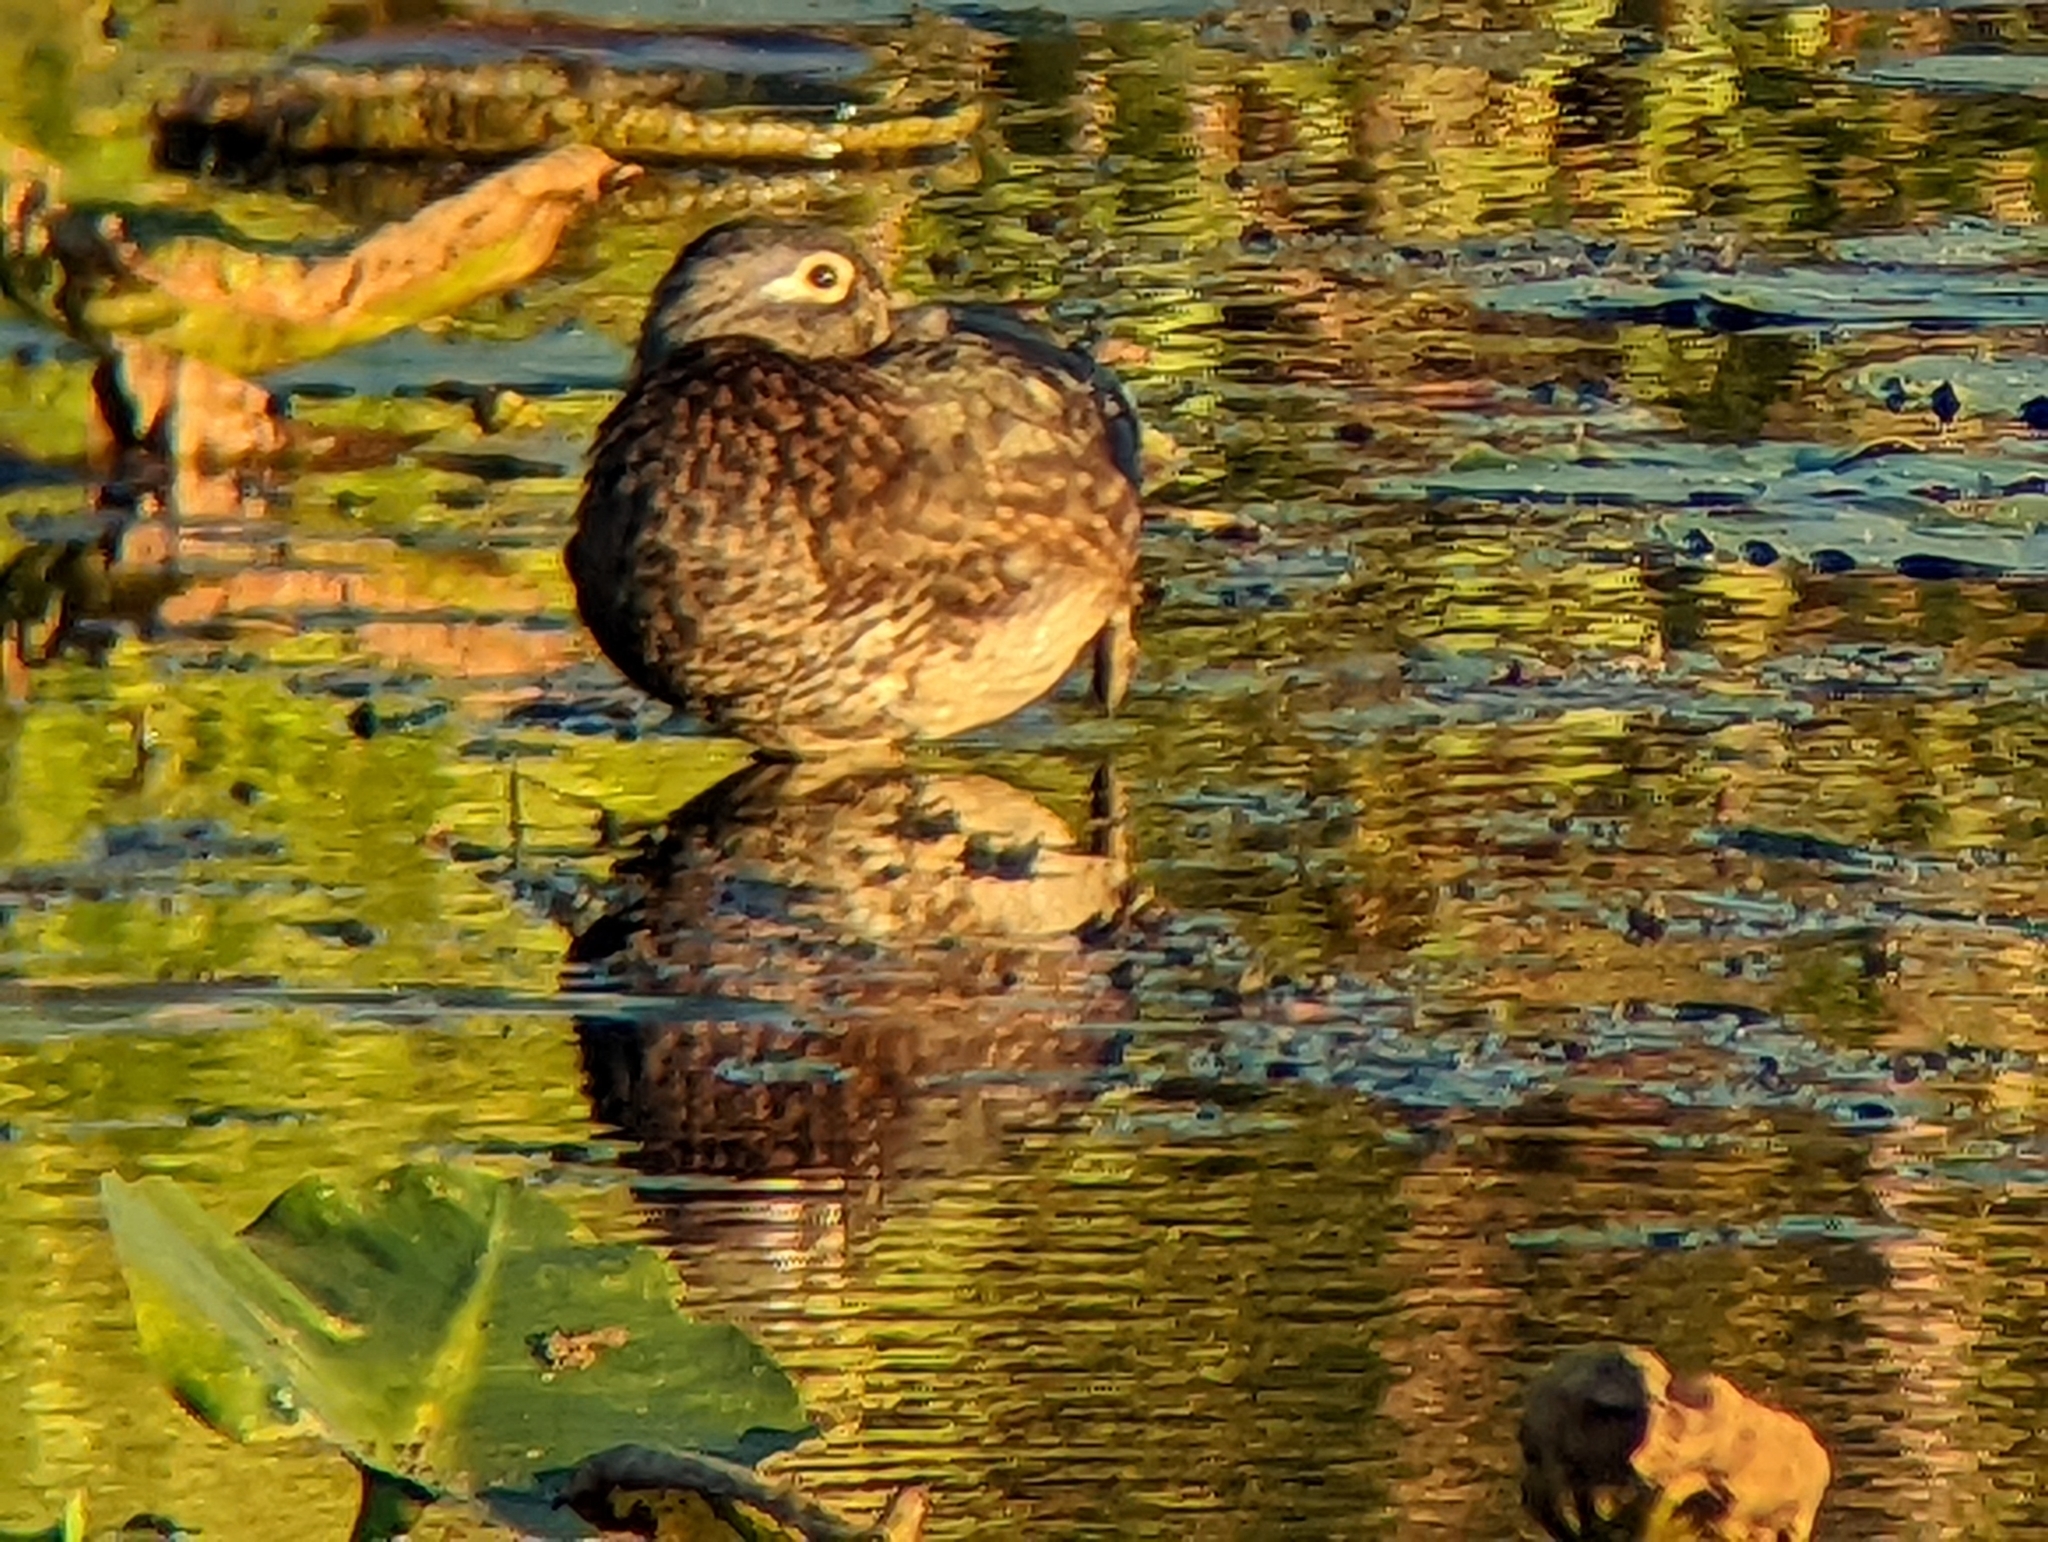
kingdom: Animalia
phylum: Chordata
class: Aves
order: Anseriformes
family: Anatidae
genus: Aix
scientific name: Aix sponsa
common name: Wood duck
